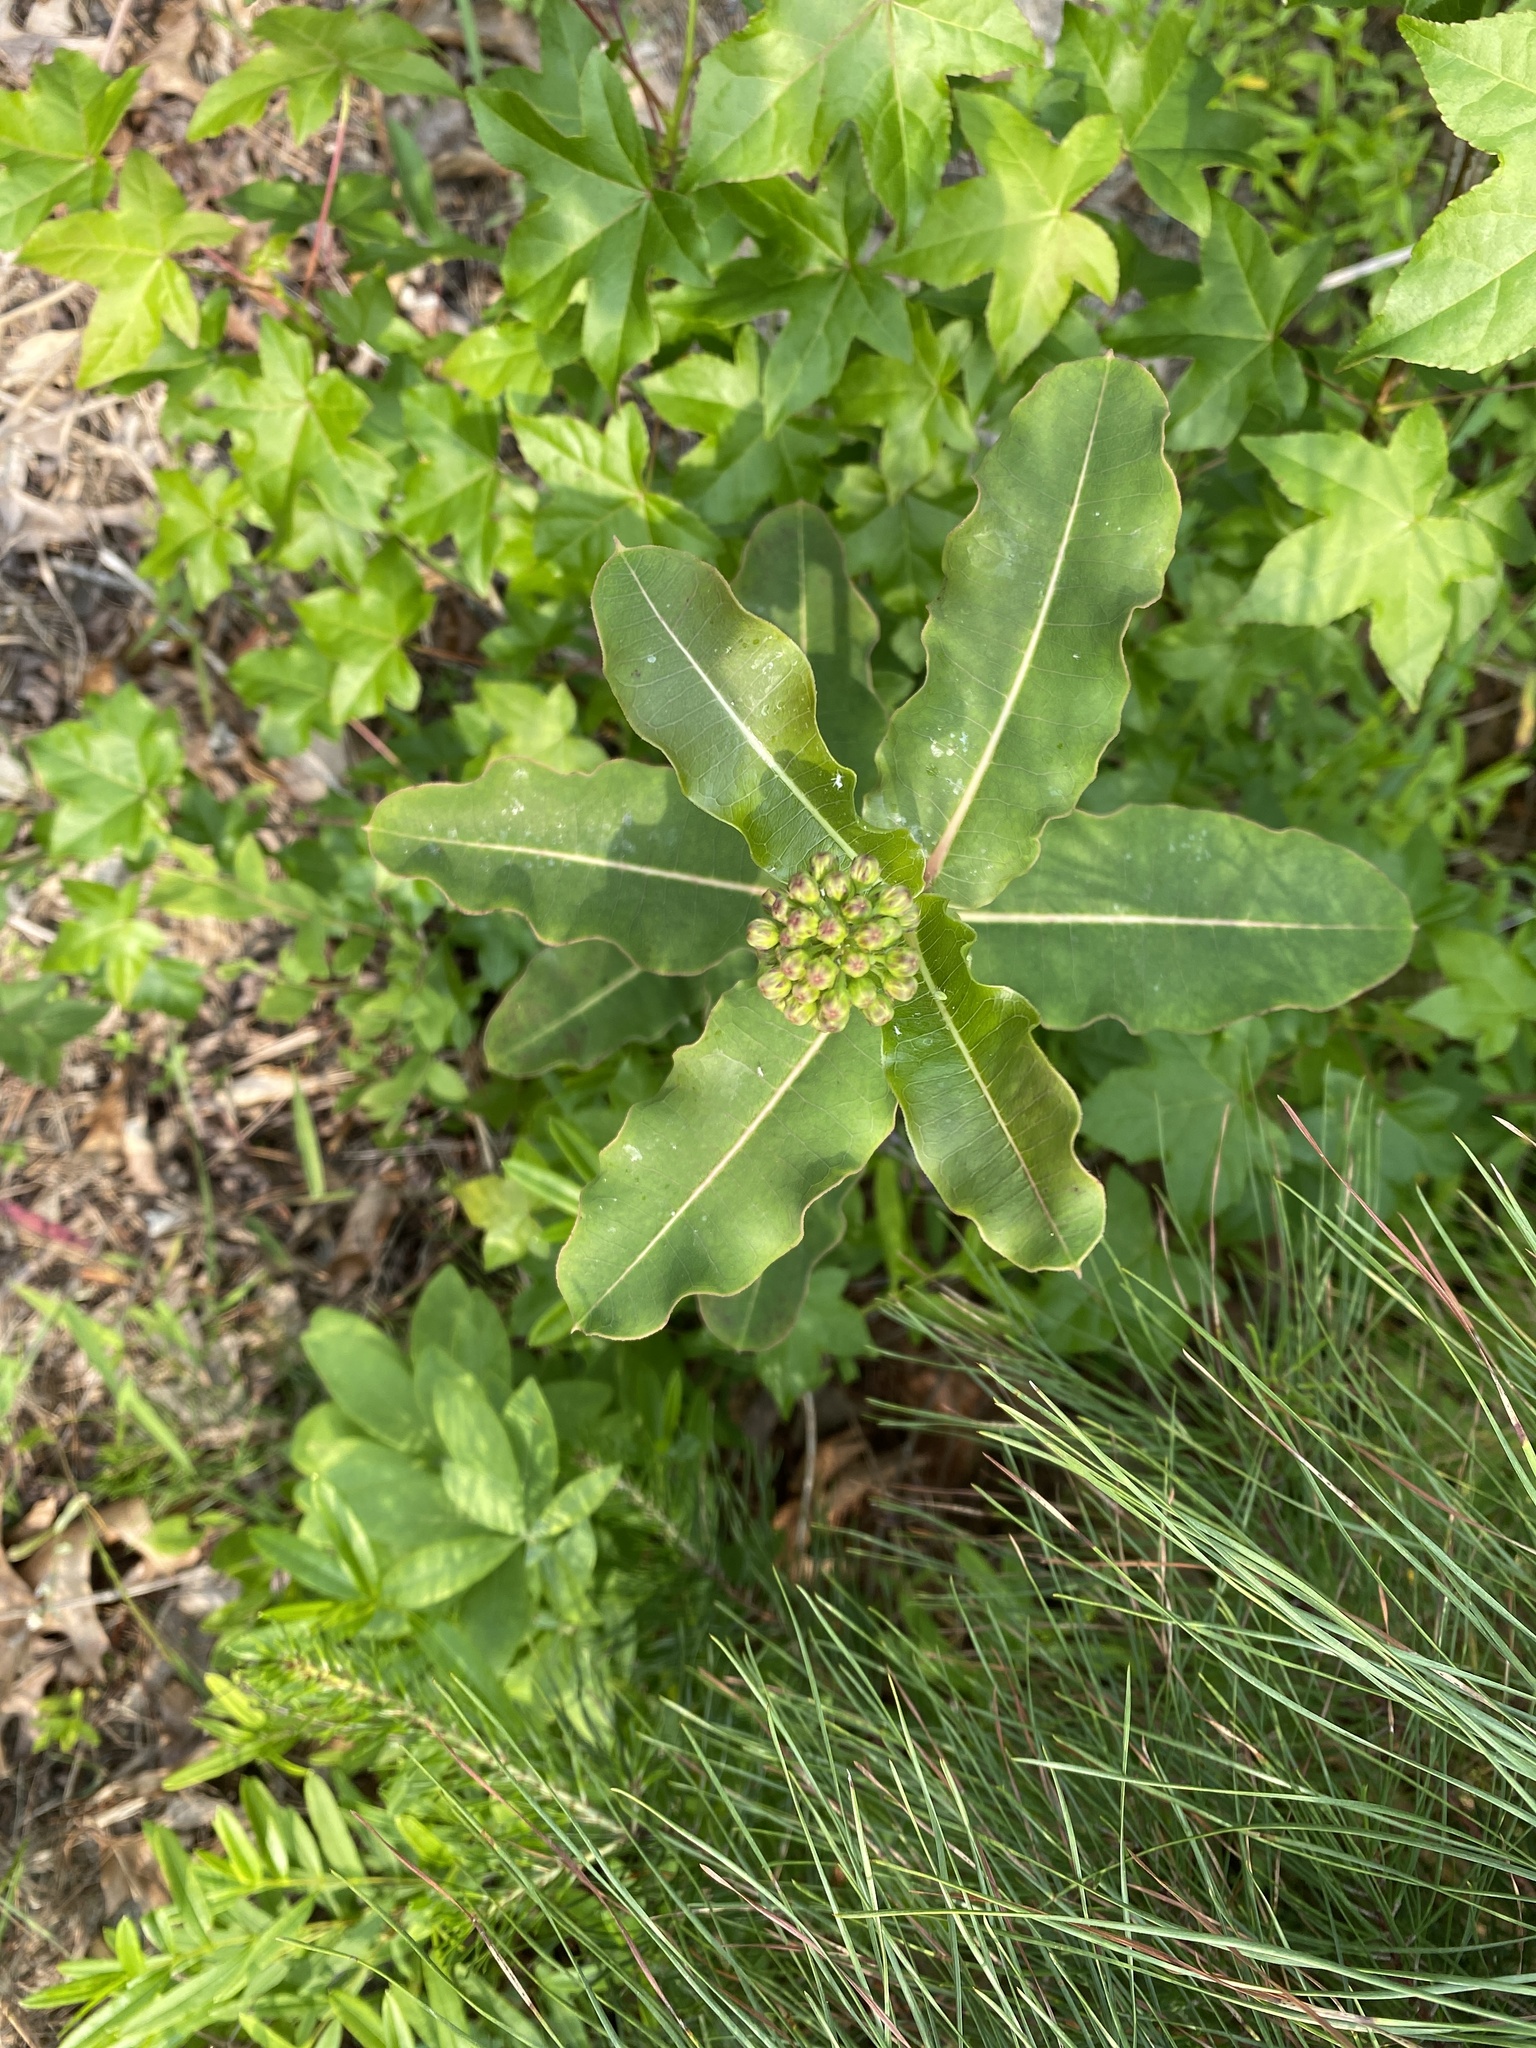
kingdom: Plantae
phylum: Tracheophyta
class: Magnoliopsida
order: Gentianales
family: Apocynaceae
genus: Asclepias
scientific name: Asclepias amplexicaulis
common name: Blunt-leaf milkweed
